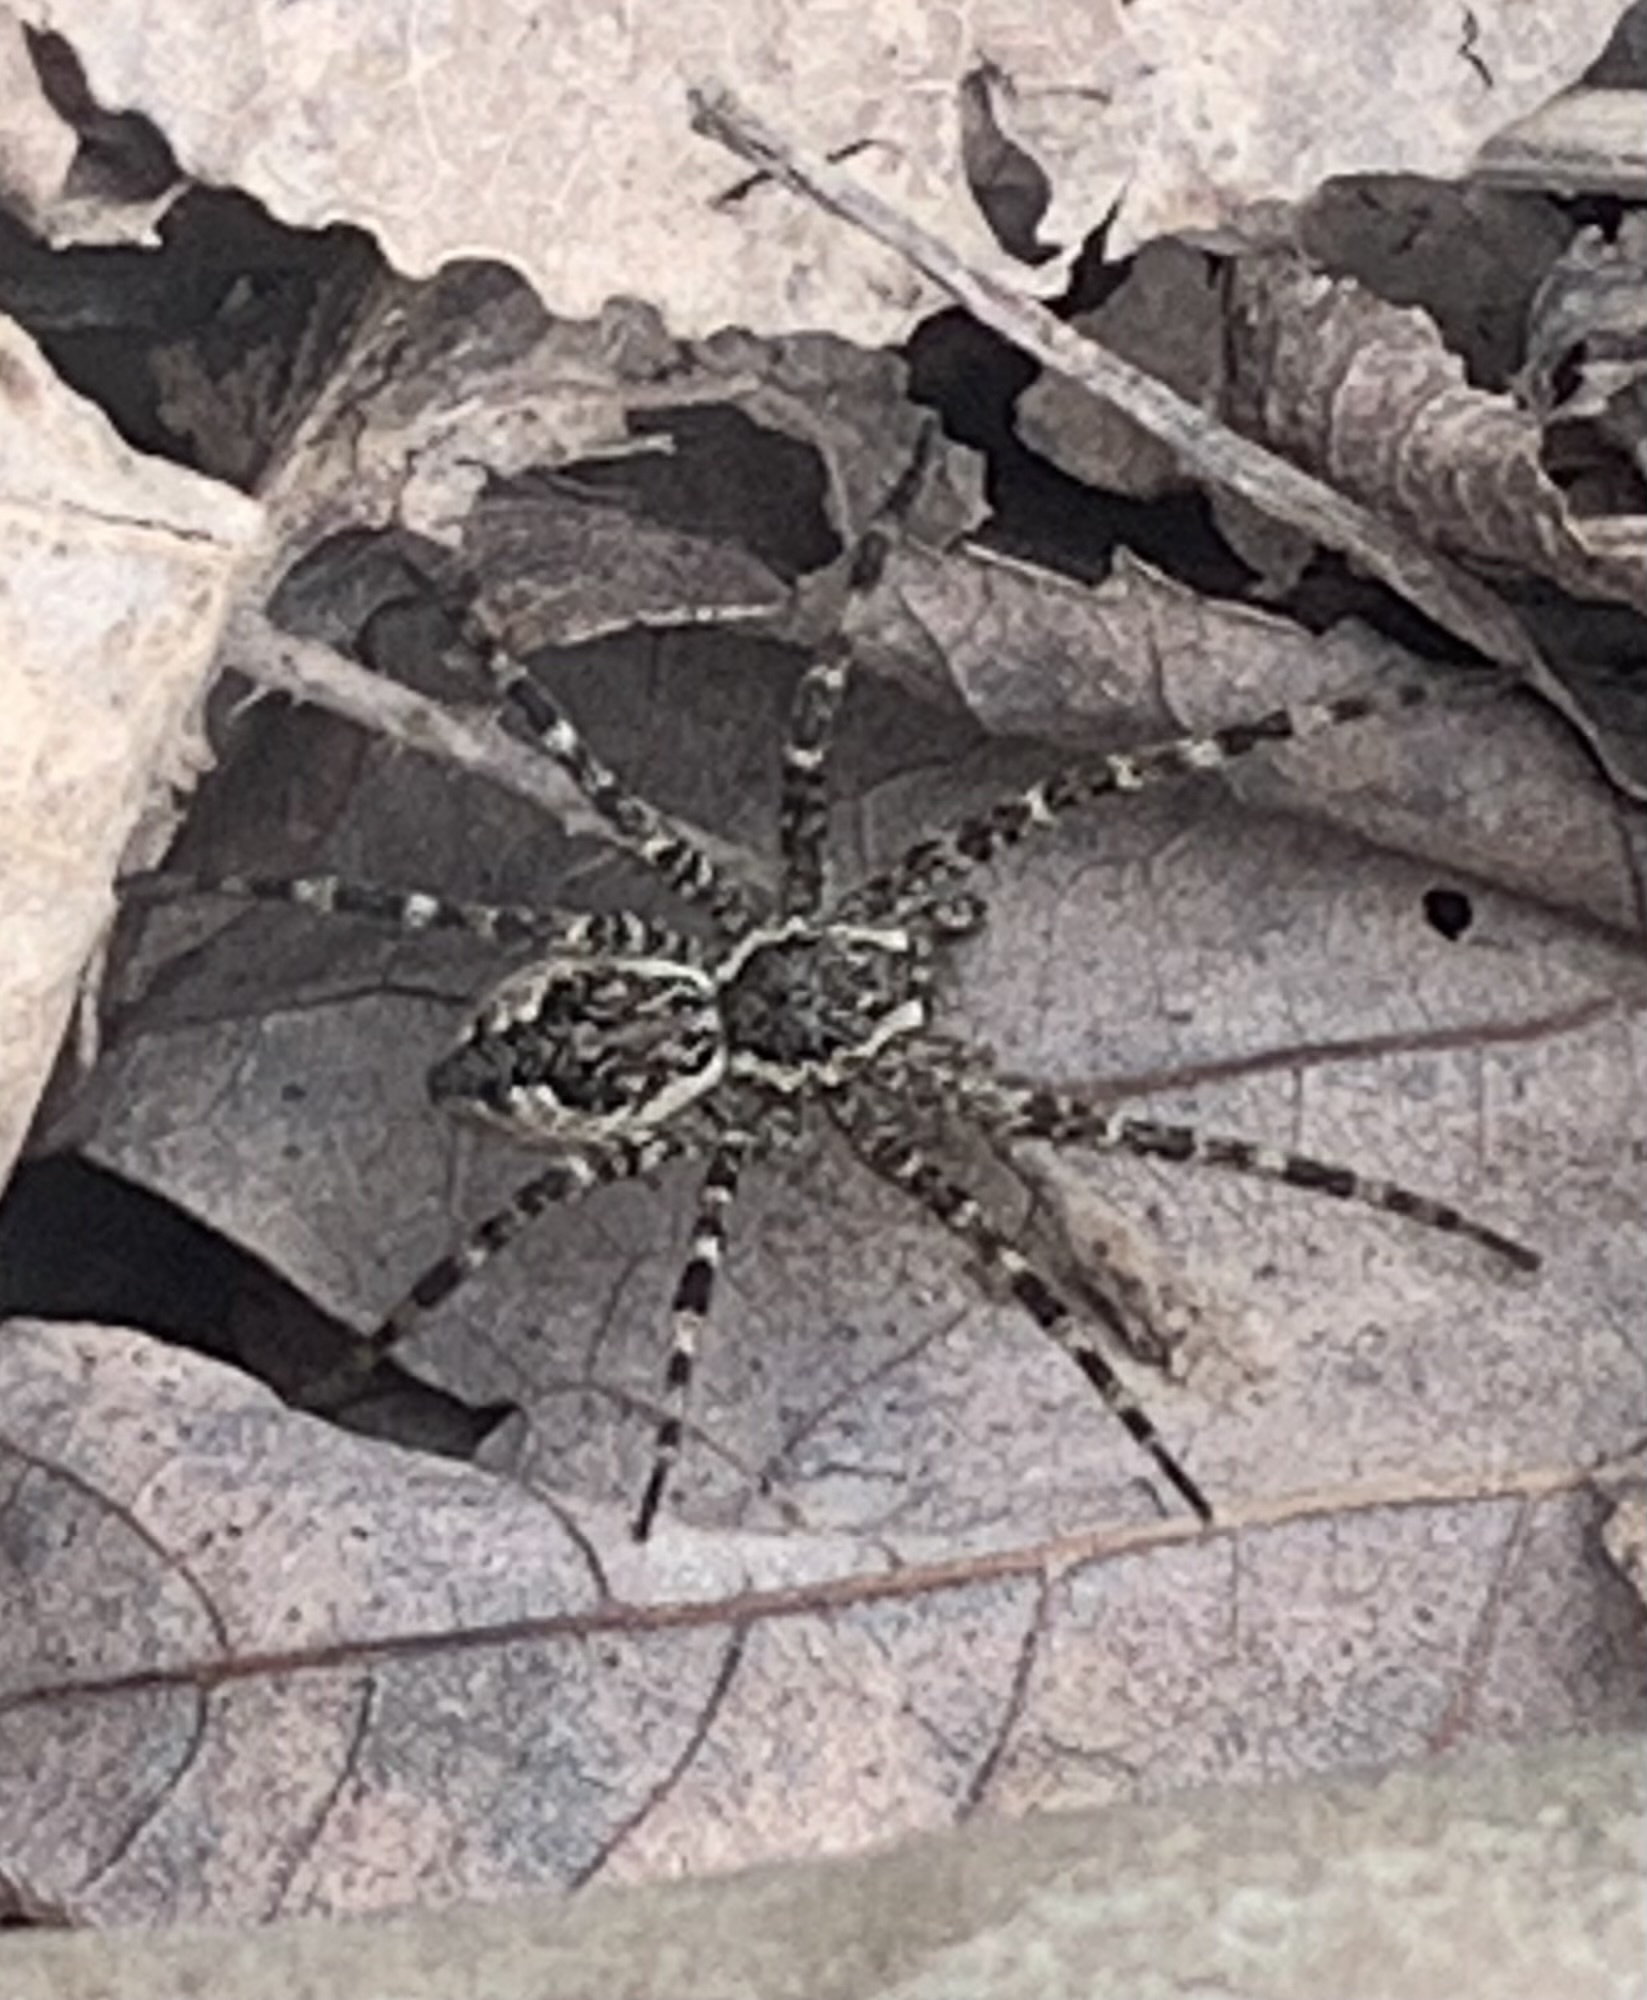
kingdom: Animalia
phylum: Arthropoda
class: Arachnida
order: Araneae
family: Pisauridae
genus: Dolomedes
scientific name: Dolomedes tenebrosus
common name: Dark fishing spider
